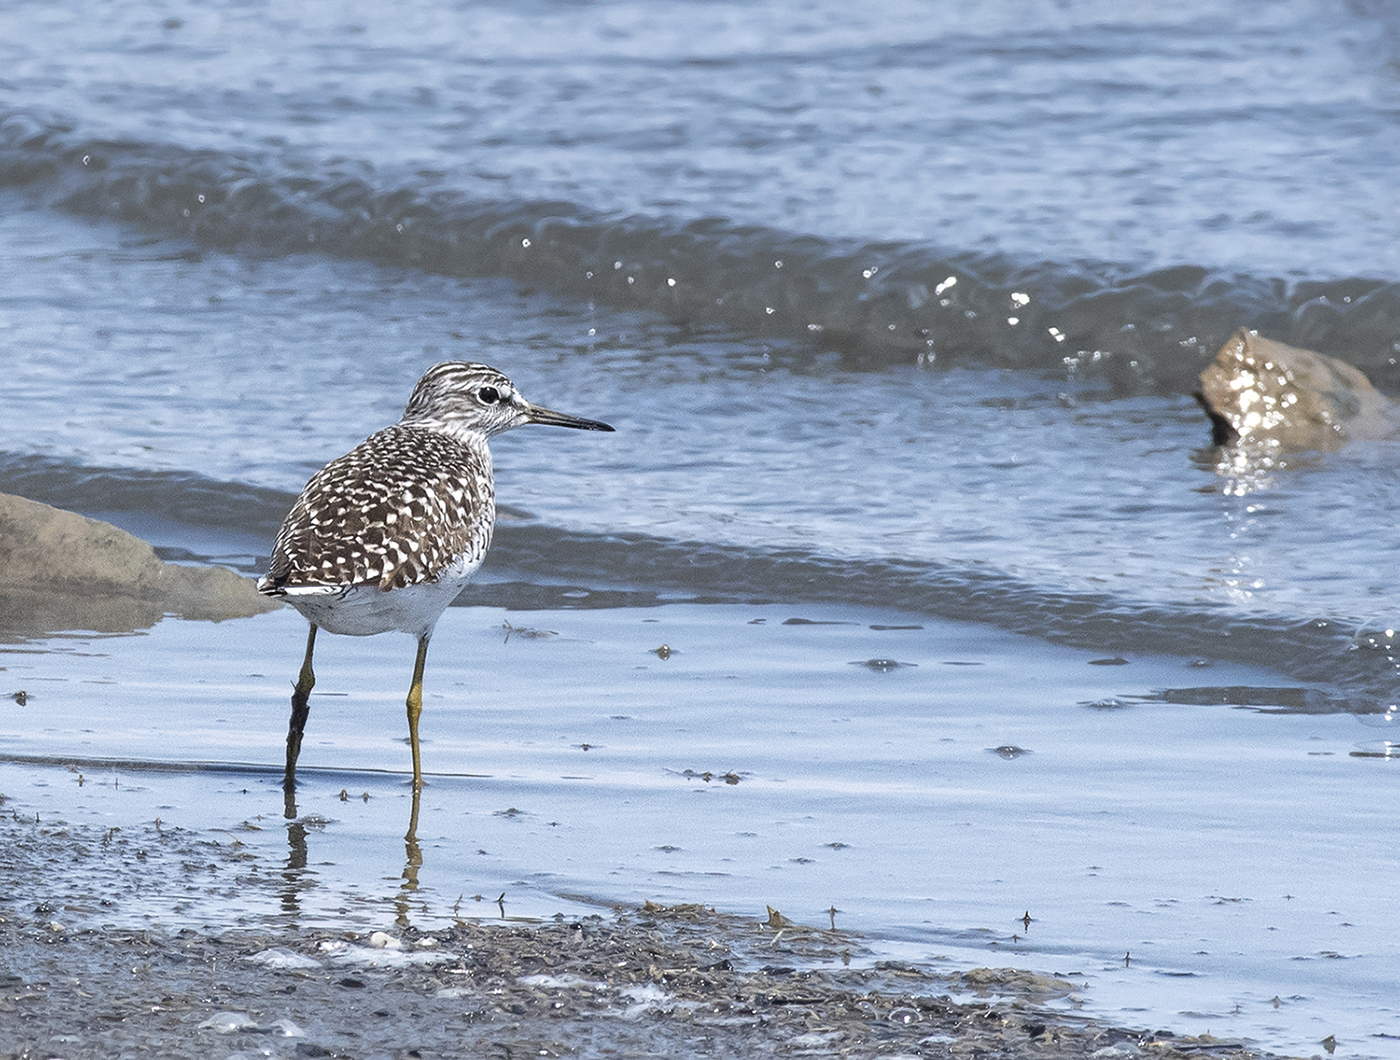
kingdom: Animalia
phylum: Chordata
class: Aves
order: Charadriiformes
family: Scolopacidae
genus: Tringa
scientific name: Tringa glareola
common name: Wood sandpiper
